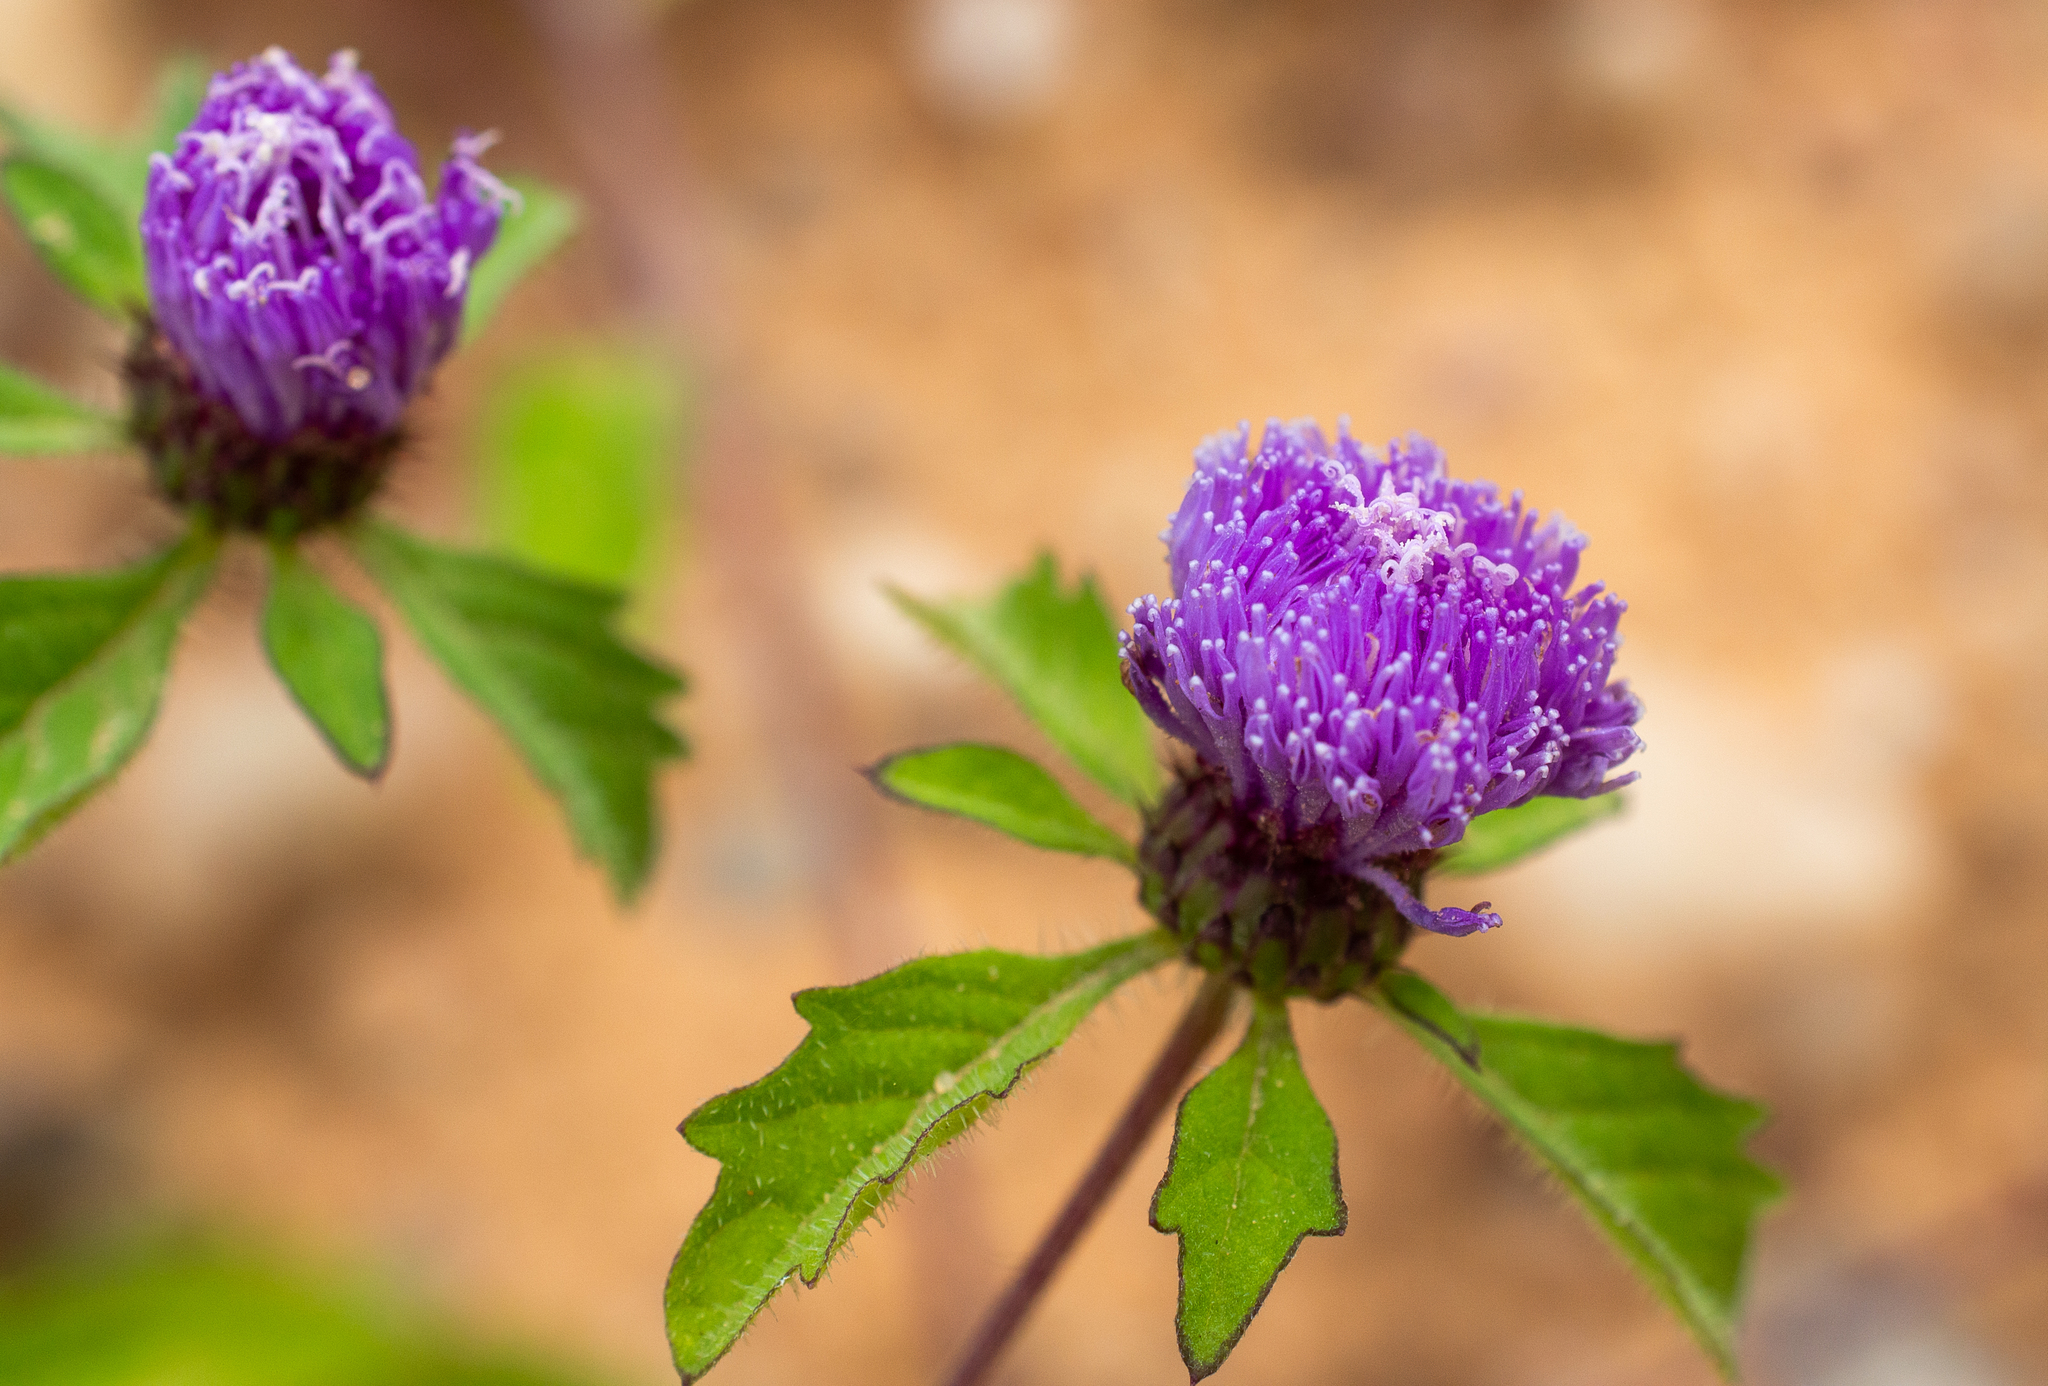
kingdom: Plantae
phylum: Tracheophyta
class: Magnoliopsida
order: Asterales
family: Asteraceae
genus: Centratherum
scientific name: Centratherum punctatum
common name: Larkdaisy
